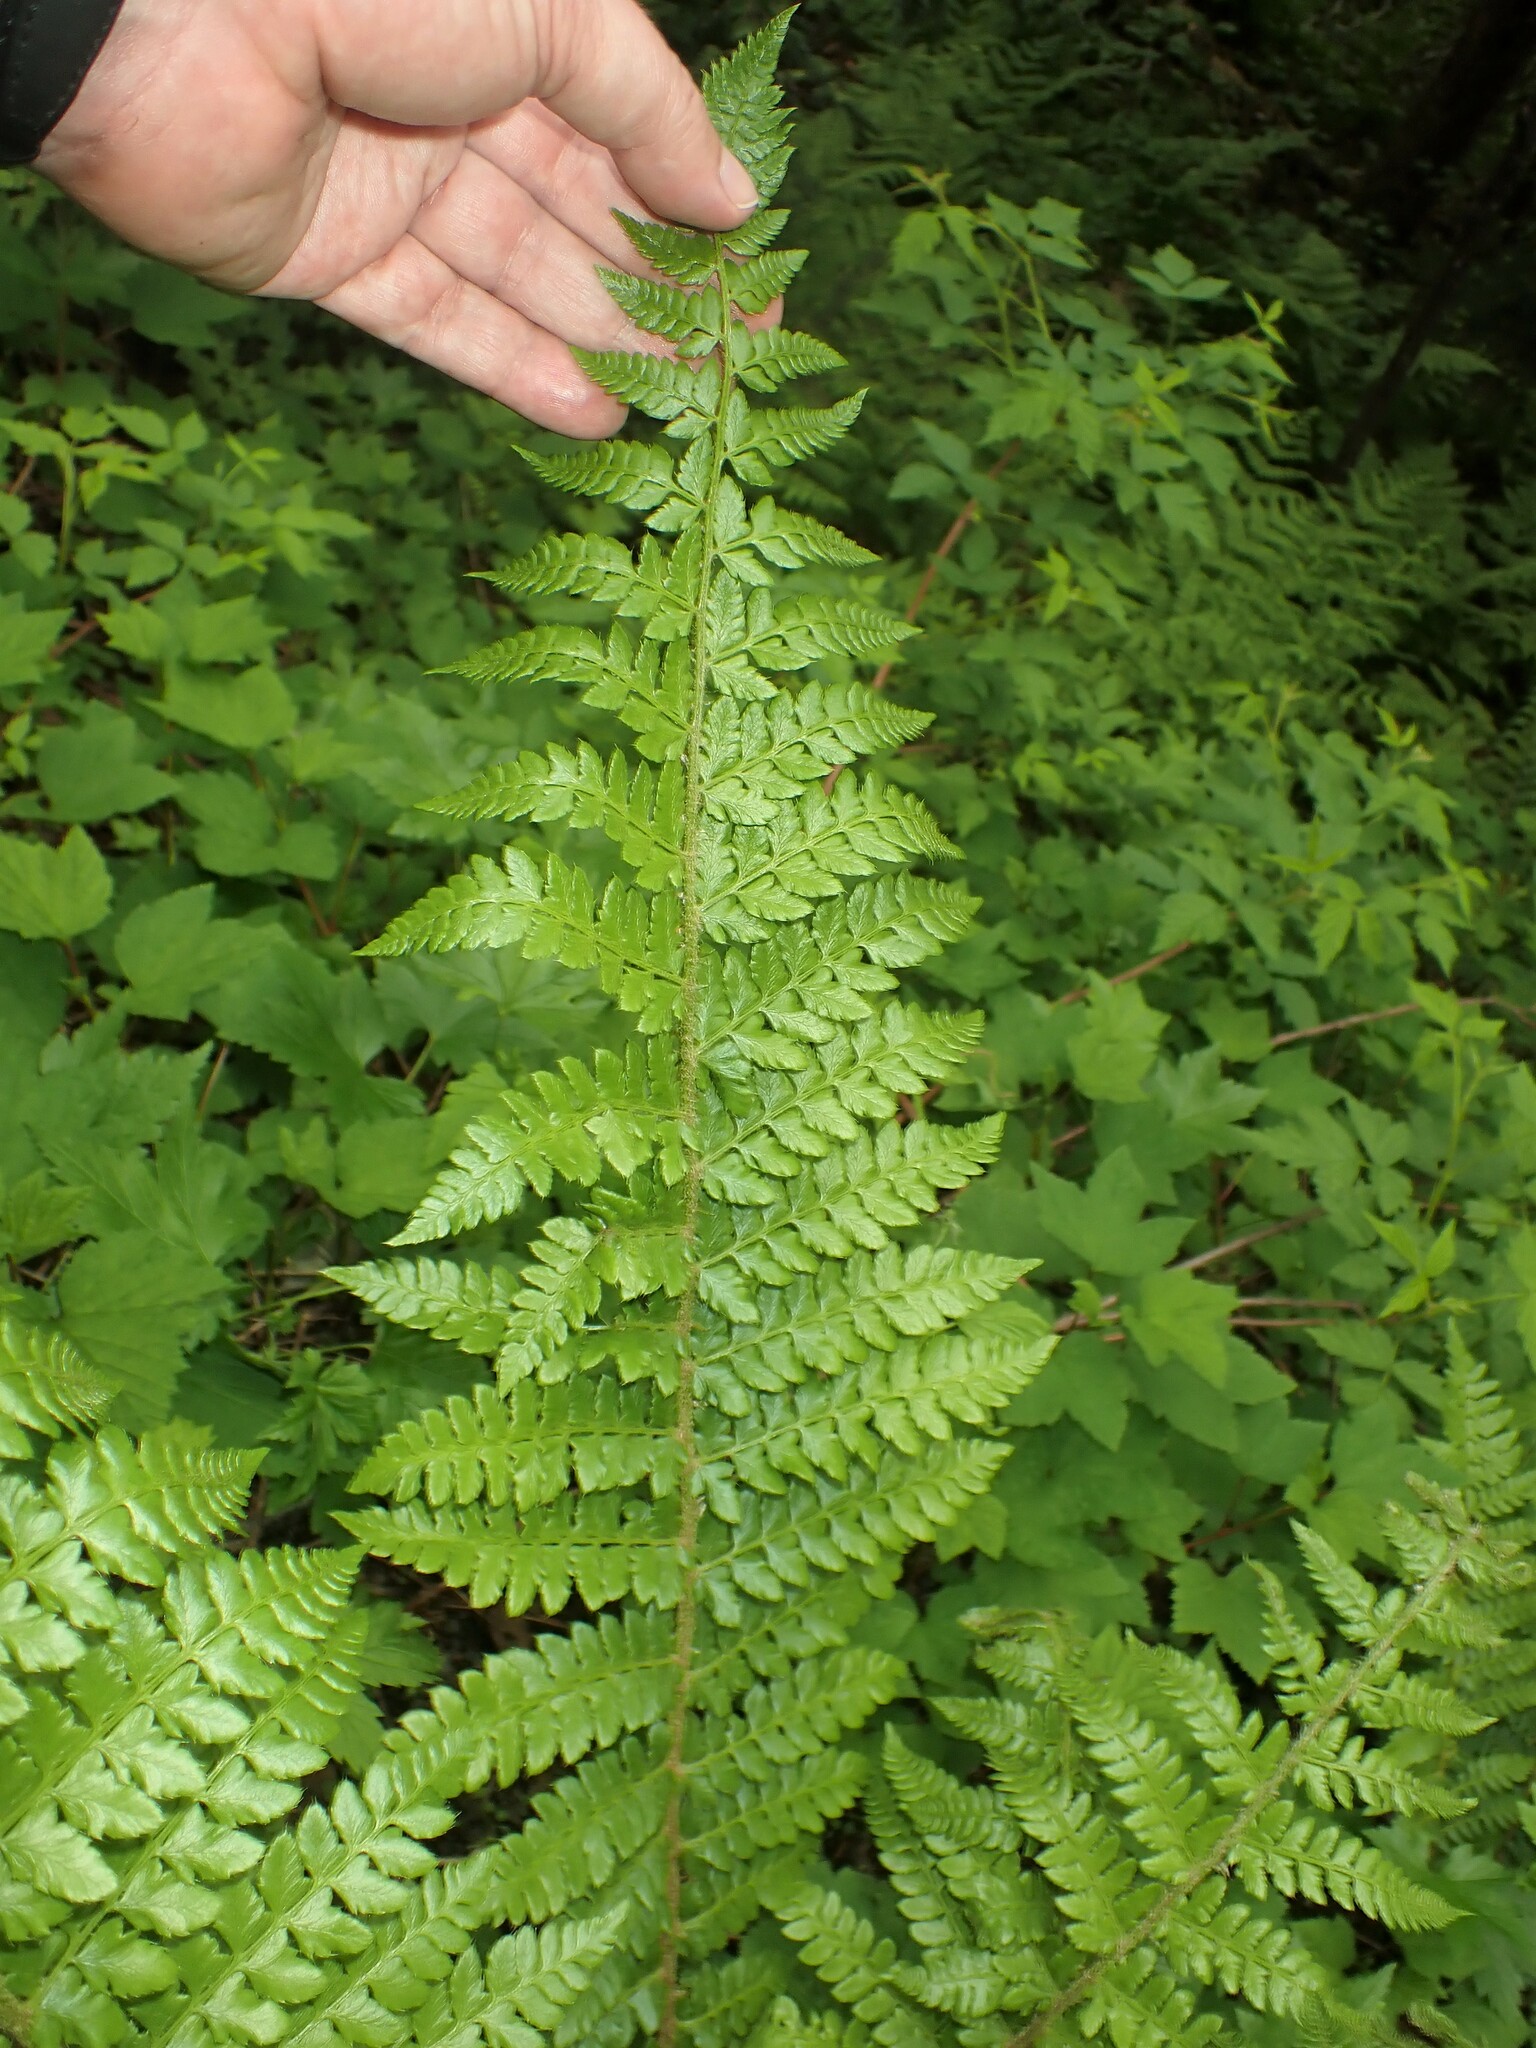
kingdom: Plantae
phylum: Tracheophyta
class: Polypodiopsida
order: Polypodiales
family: Dryopteridaceae
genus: Polystichum
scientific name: Polystichum braunii
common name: Braun's holly fern
